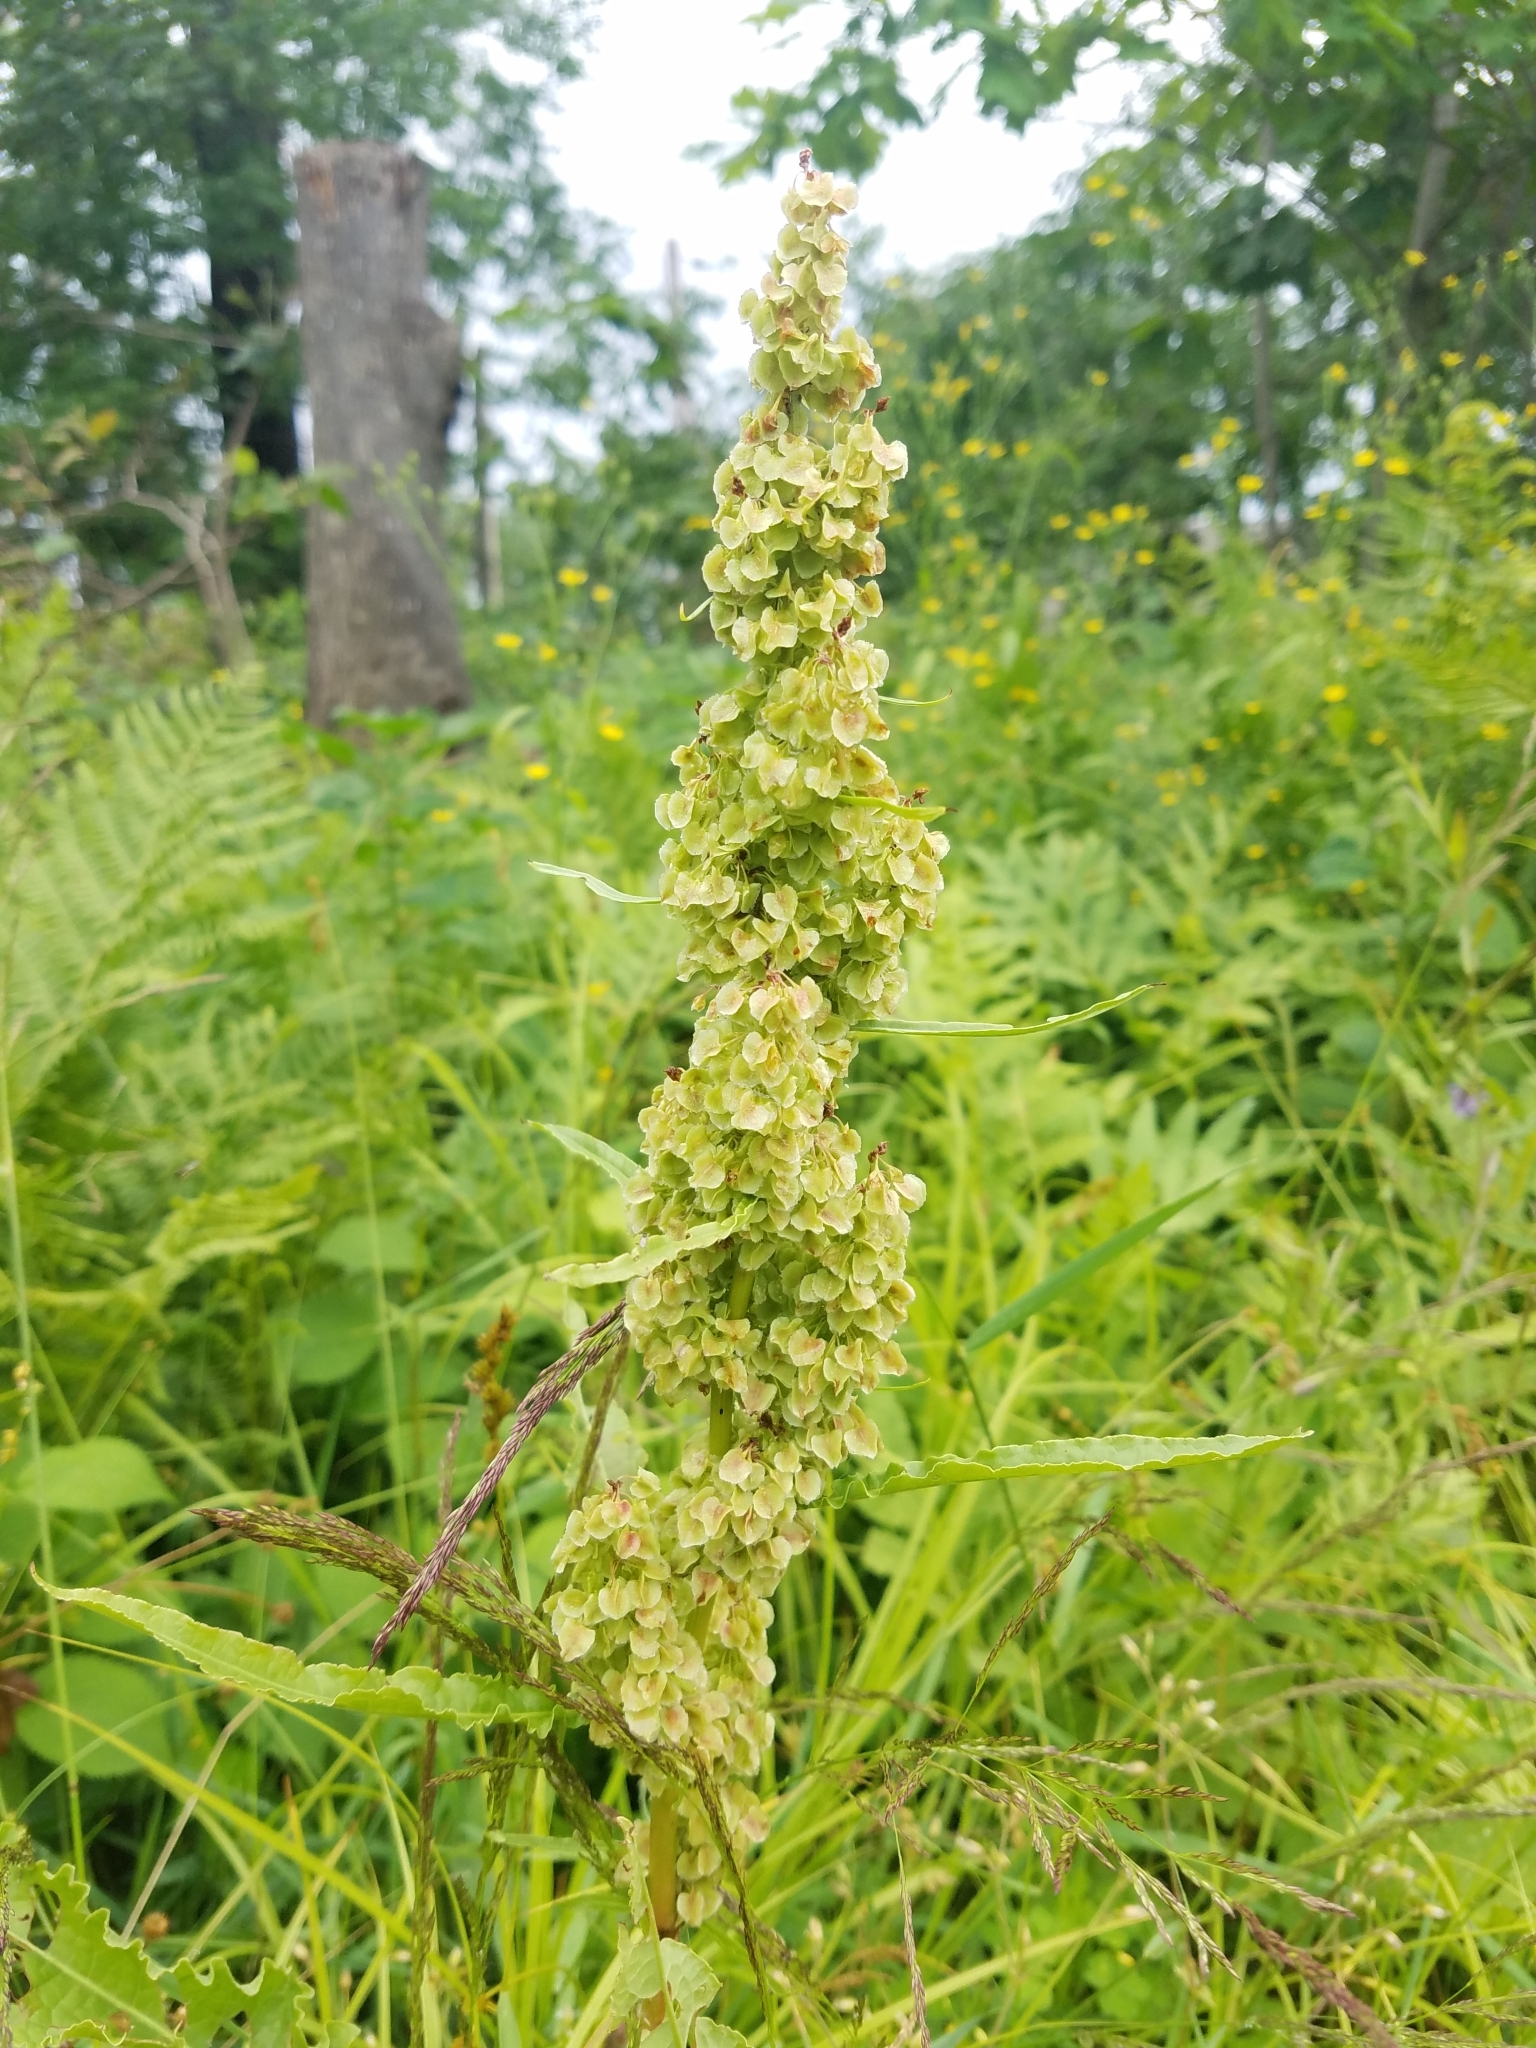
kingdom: Plantae
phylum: Tracheophyta
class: Magnoliopsida
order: Caryophyllales
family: Polygonaceae
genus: Rumex
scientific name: Rumex crispus
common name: Curled dock
